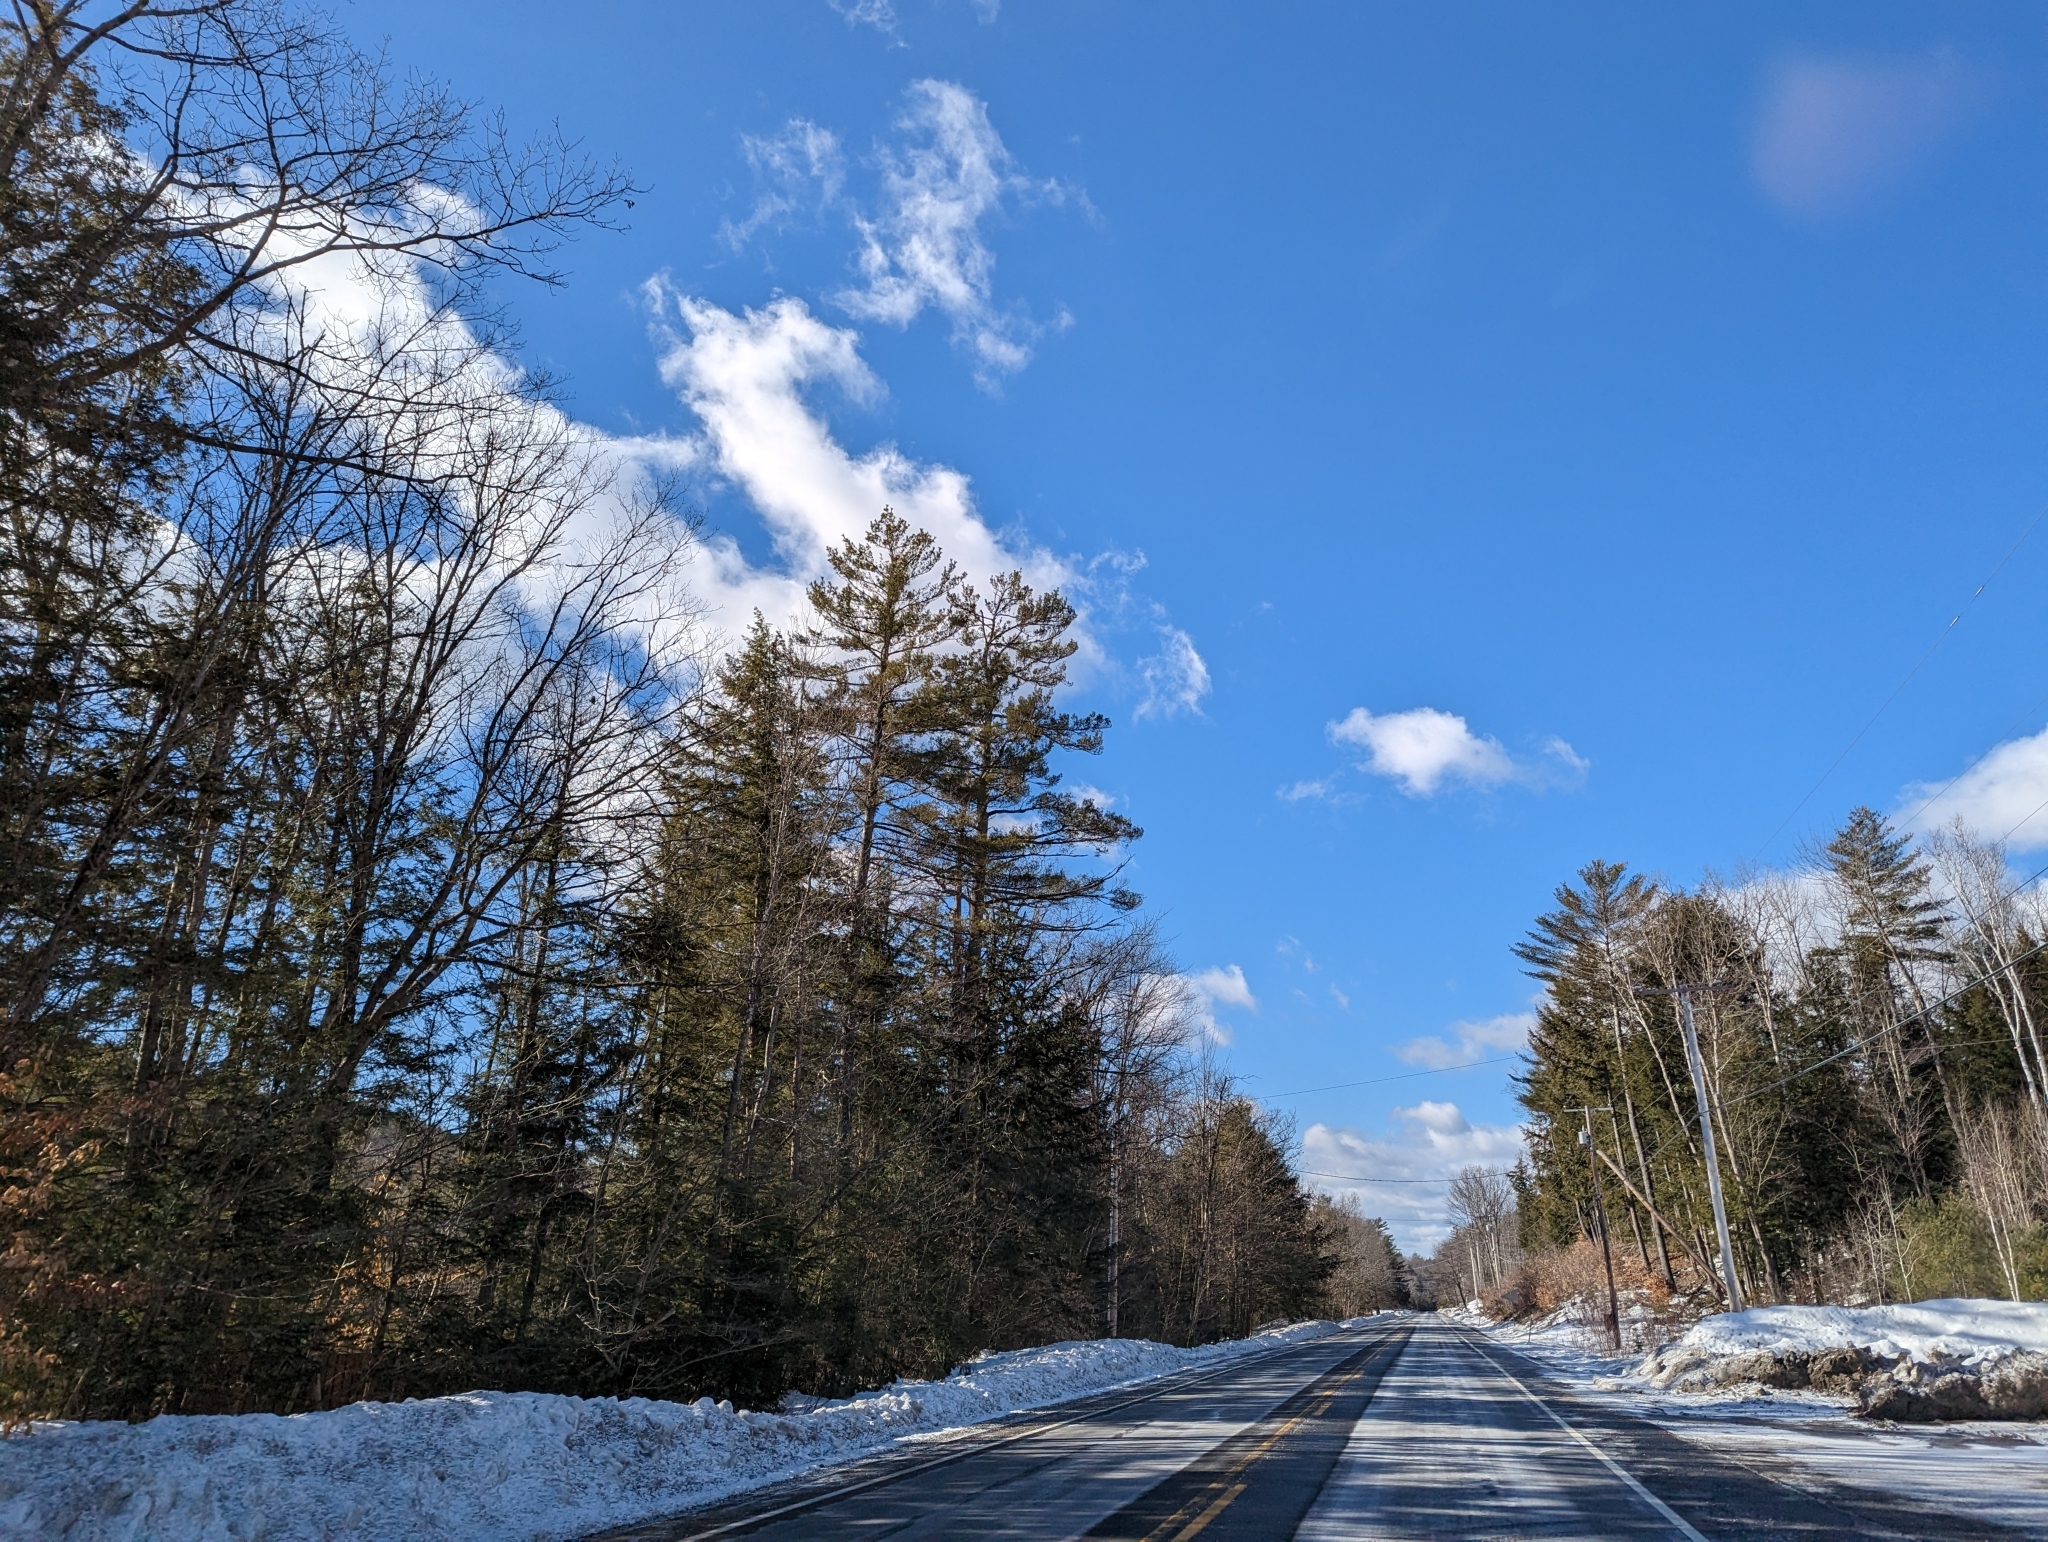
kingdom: Plantae
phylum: Tracheophyta
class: Pinopsida
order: Pinales
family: Pinaceae
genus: Pinus
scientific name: Pinus strobus
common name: Weymouth pine
